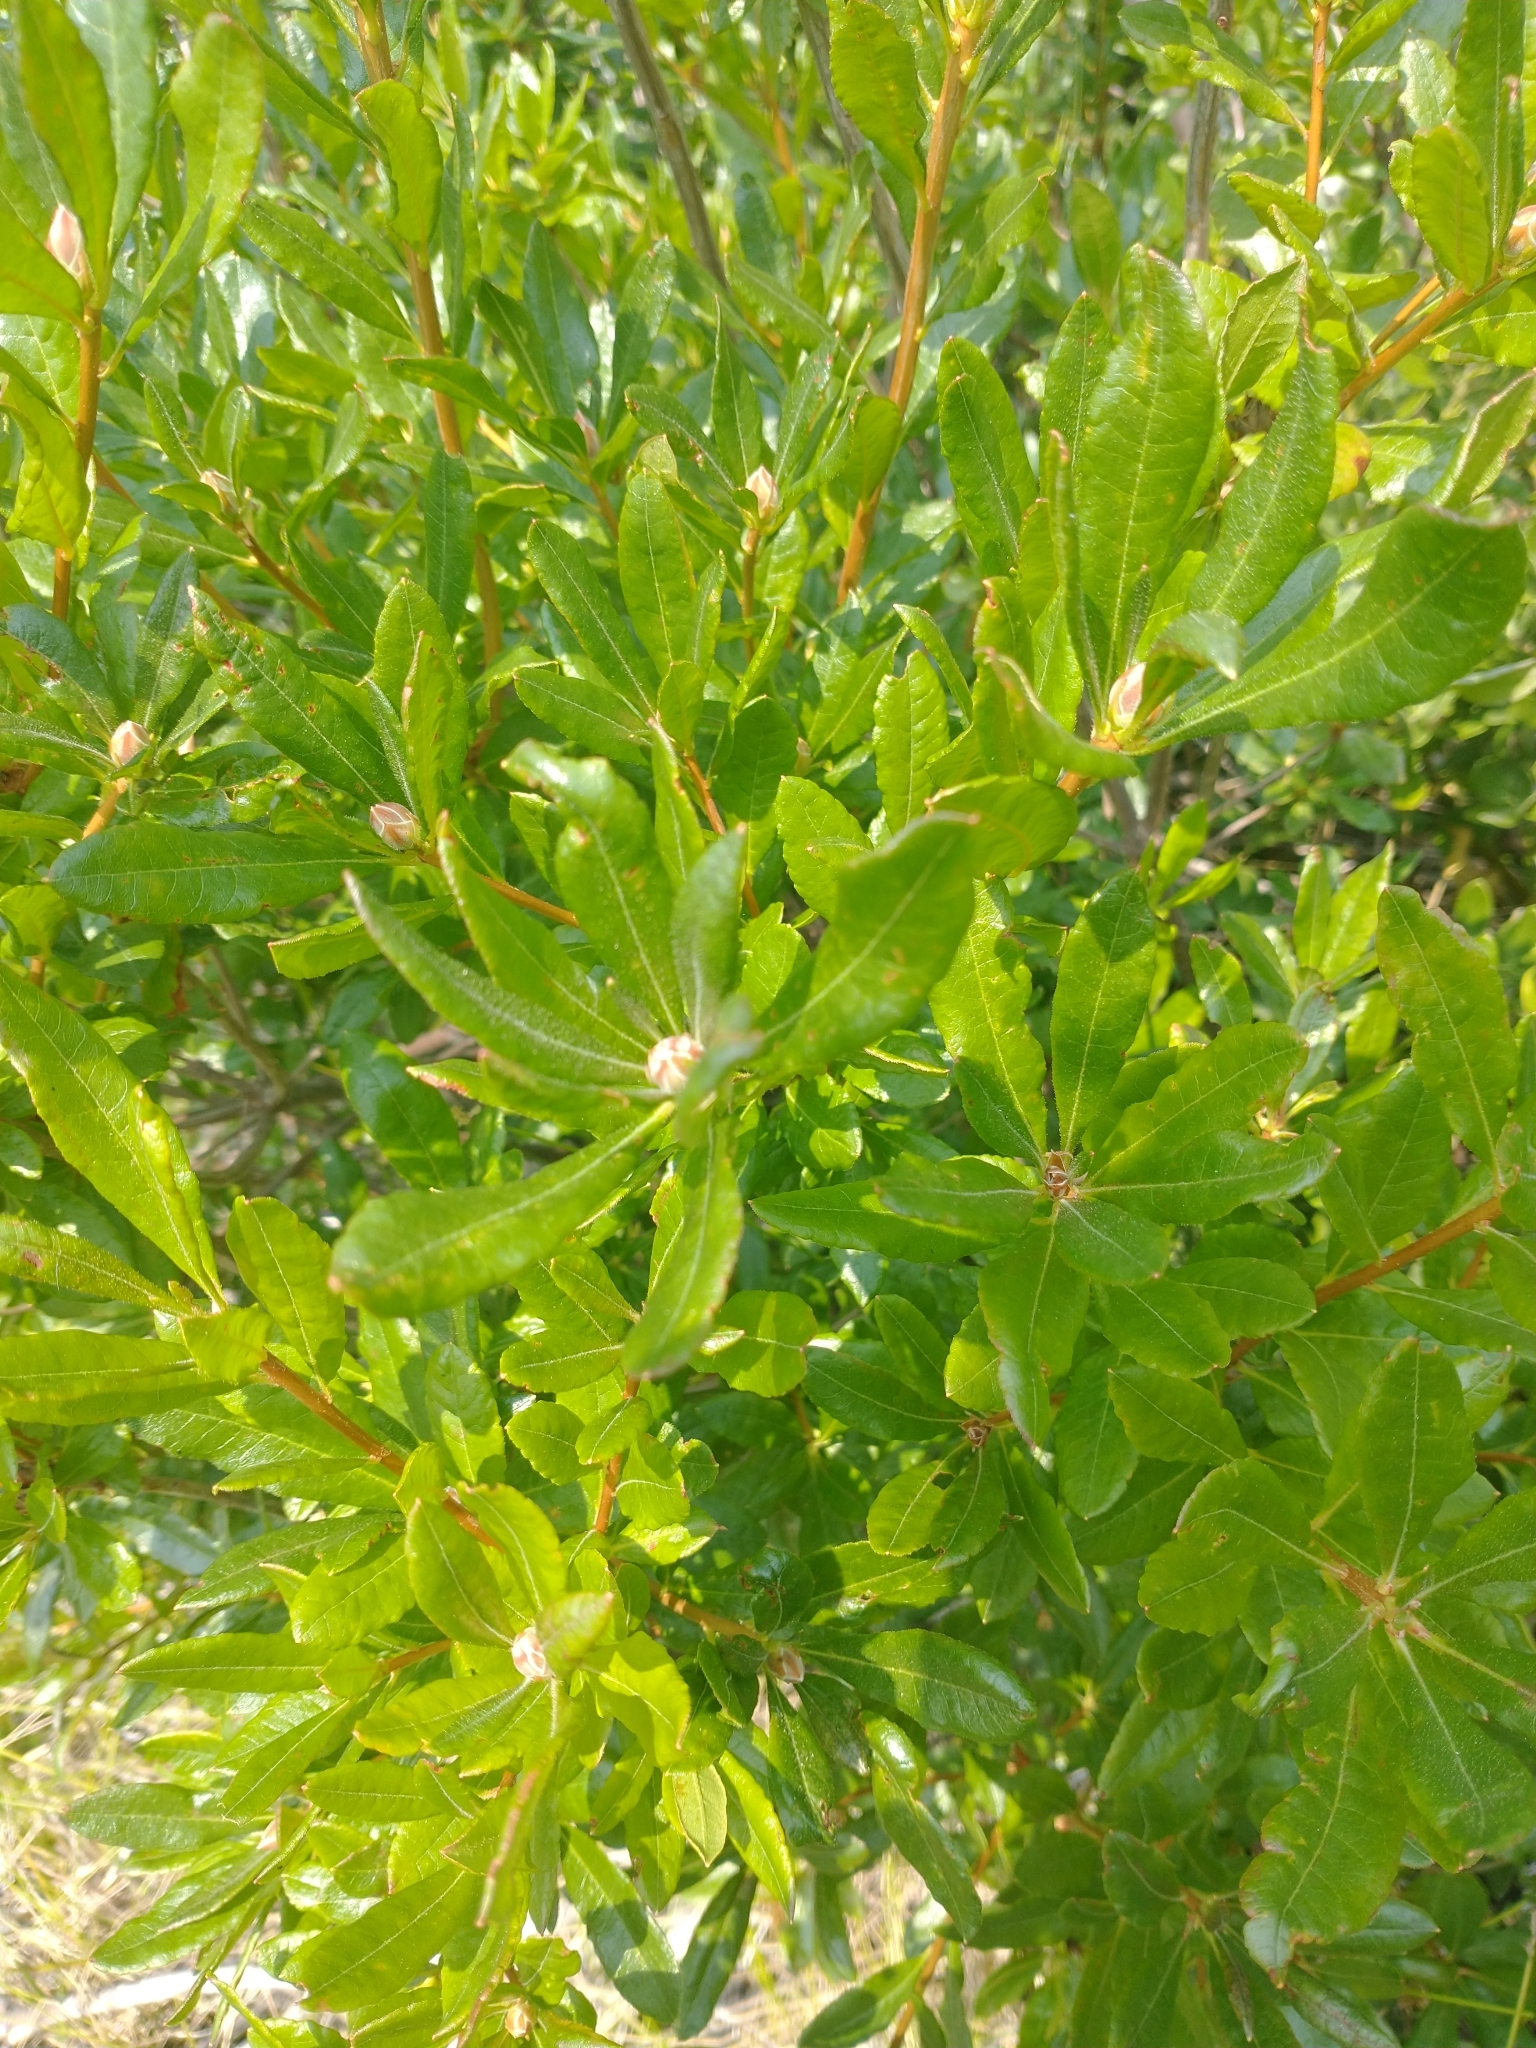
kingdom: Plantae
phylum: Tracheophyta
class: Magnoliopsida
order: Ericales
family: Ericaceae
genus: Rhododendron
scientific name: Rhododendron occidentale
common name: Western azalea
